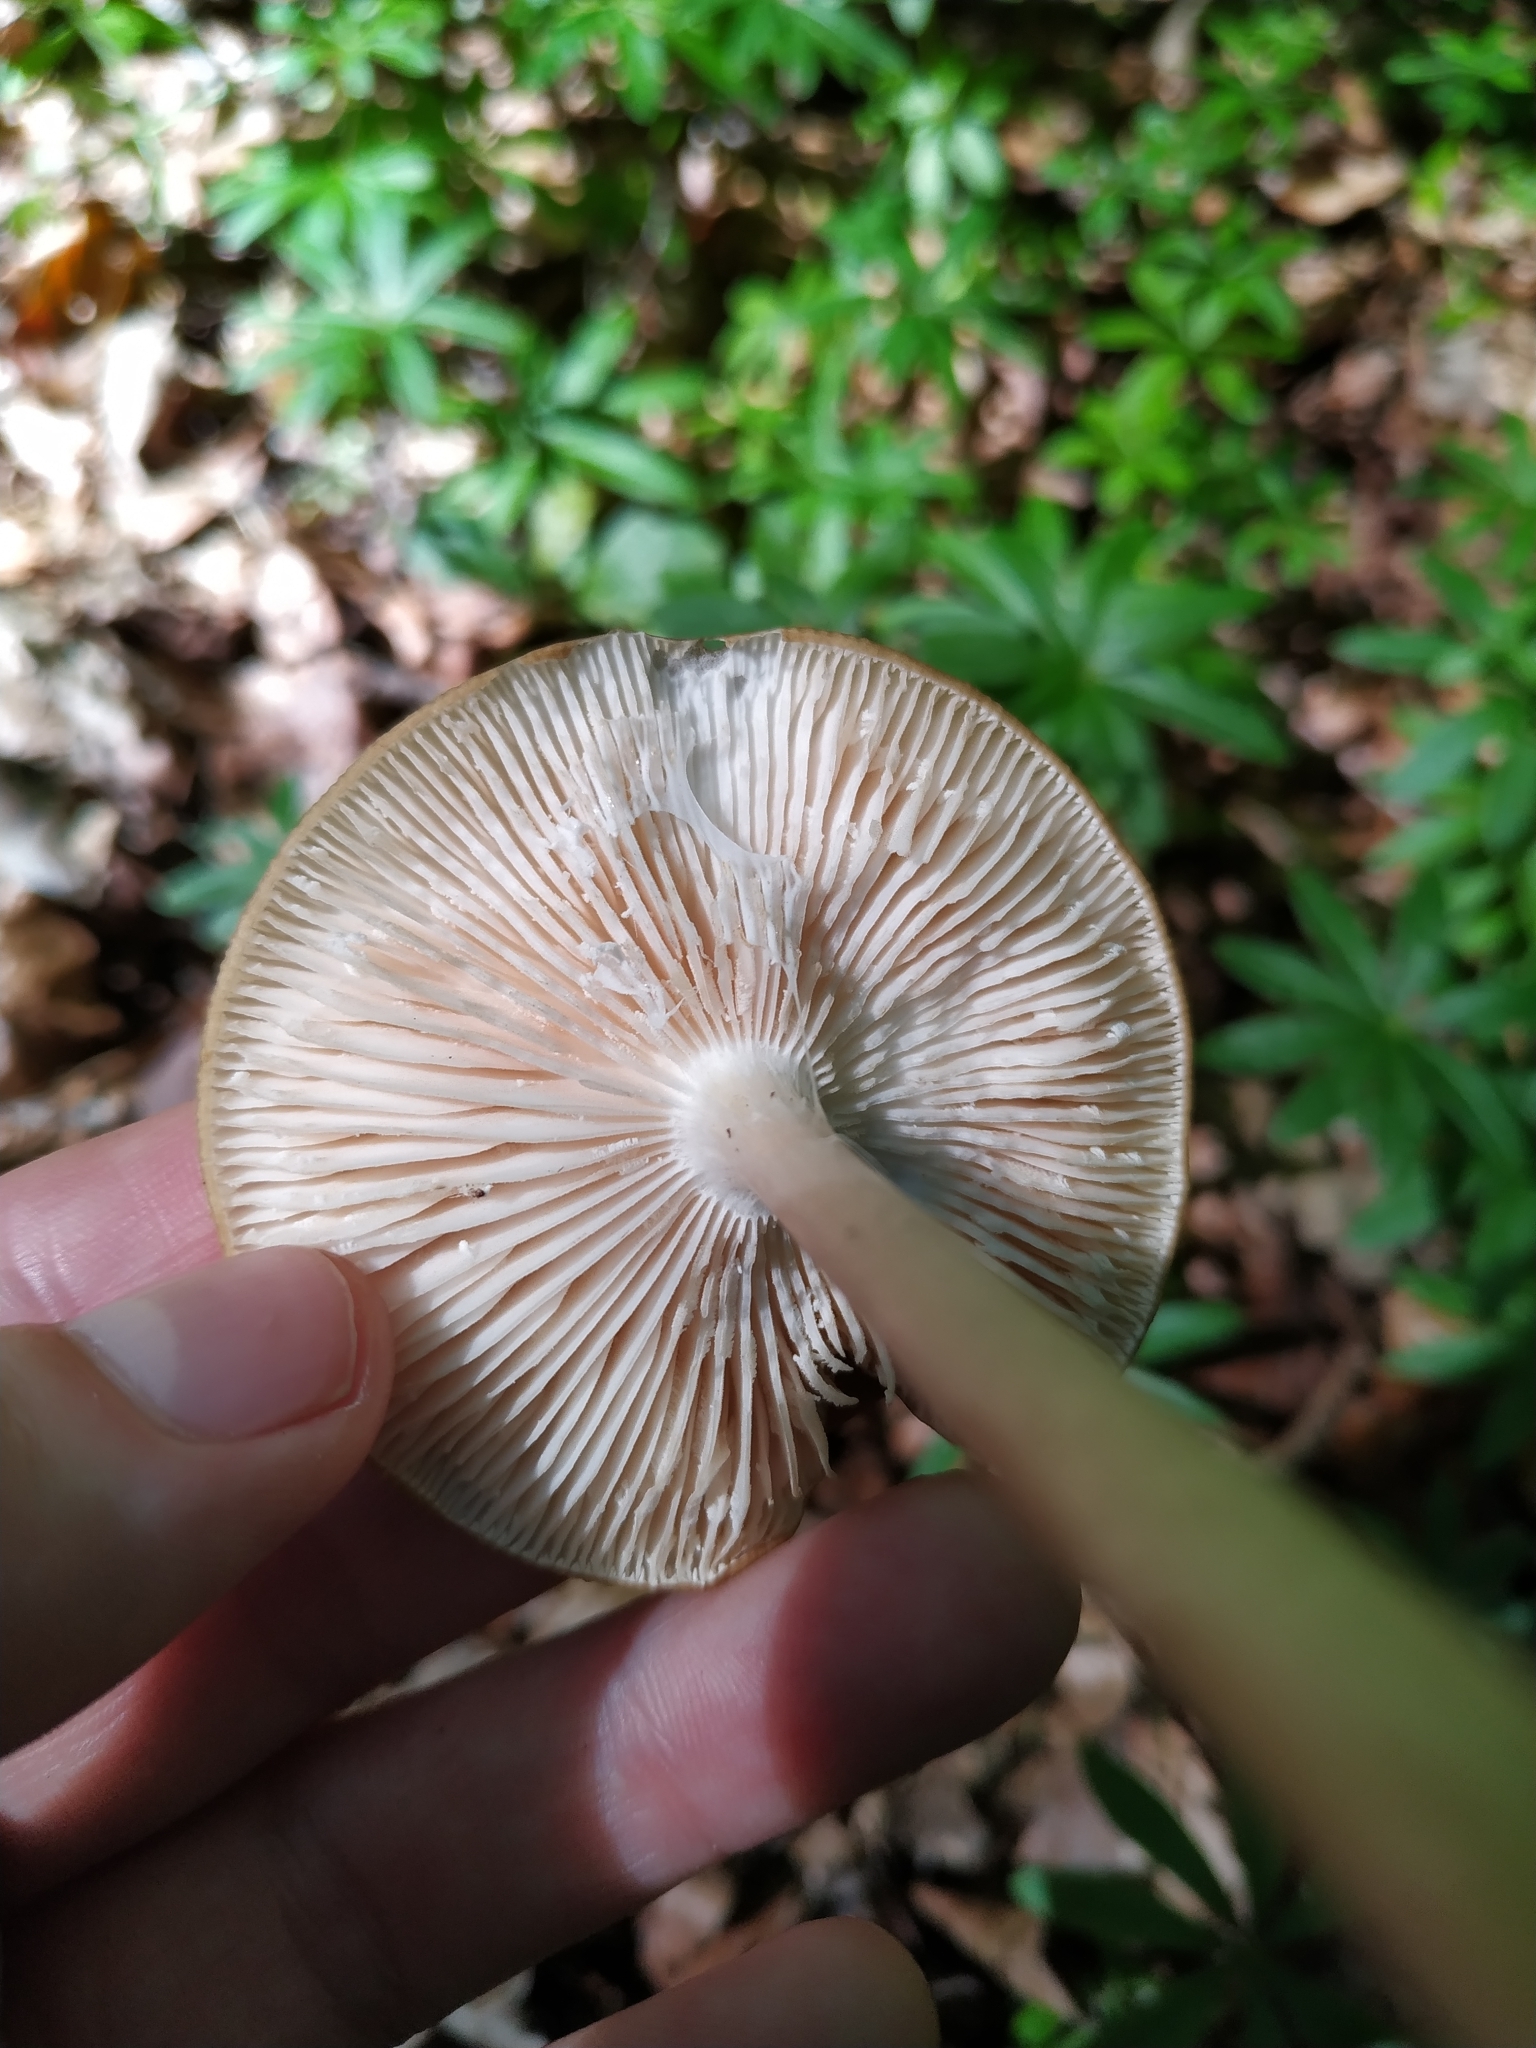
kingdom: Fungi
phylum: Basidiomycota
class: Agaricomycetes
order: Agaricales
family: Physalacriaceae
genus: Hymenopellis
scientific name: Hymenopellis radicata
